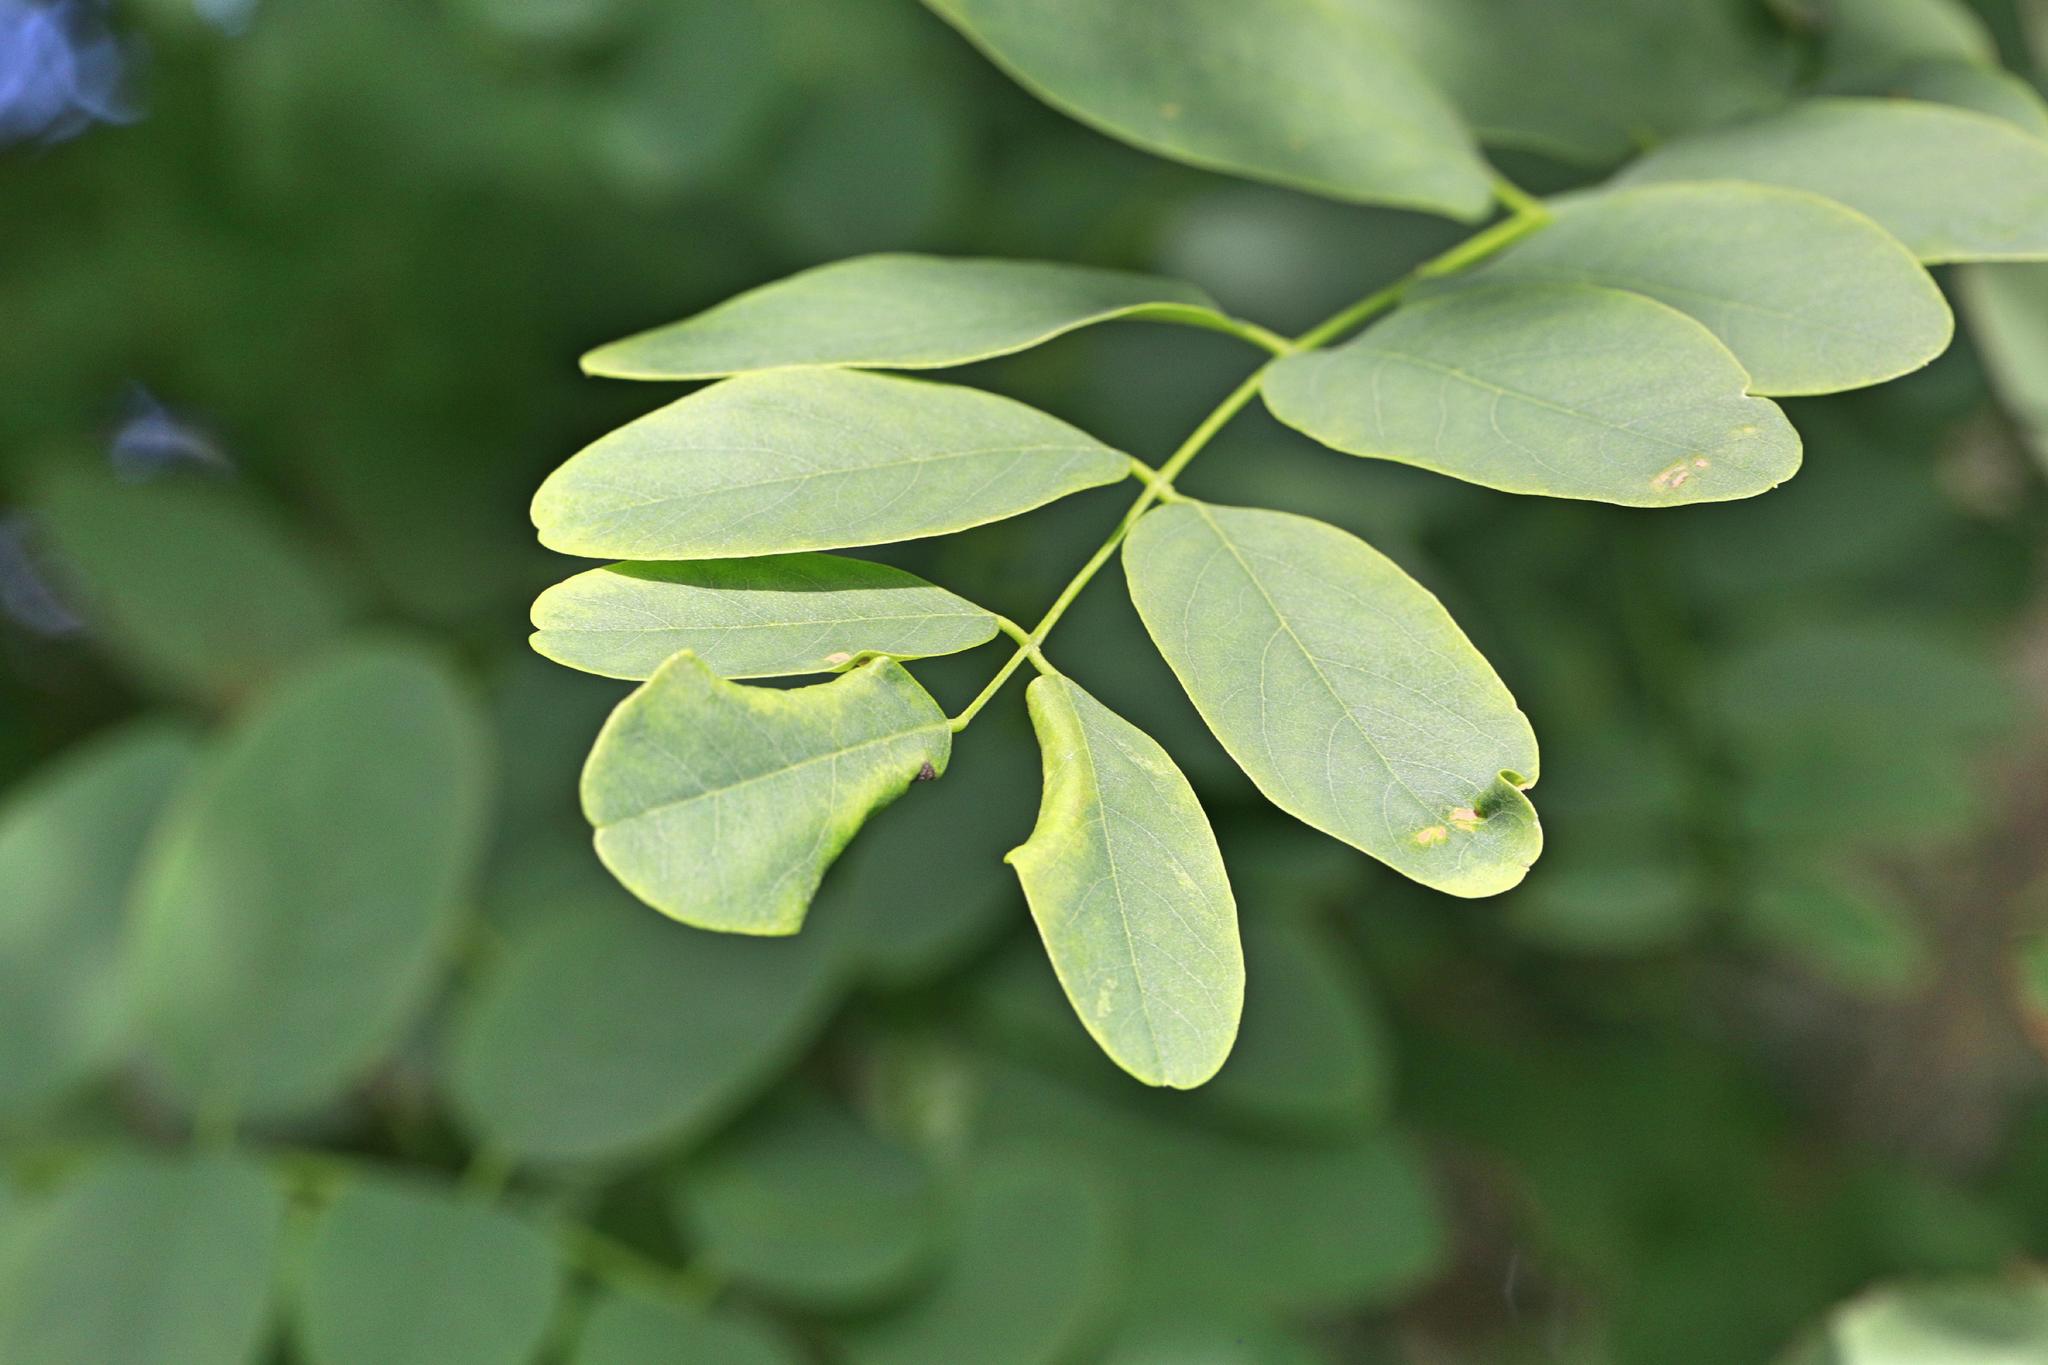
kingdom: Animalia
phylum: Arthropoda
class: Insecta
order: Diptera
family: Cecidomyiidae
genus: Obolodiplosis
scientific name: Obolodiplosis robiniae
